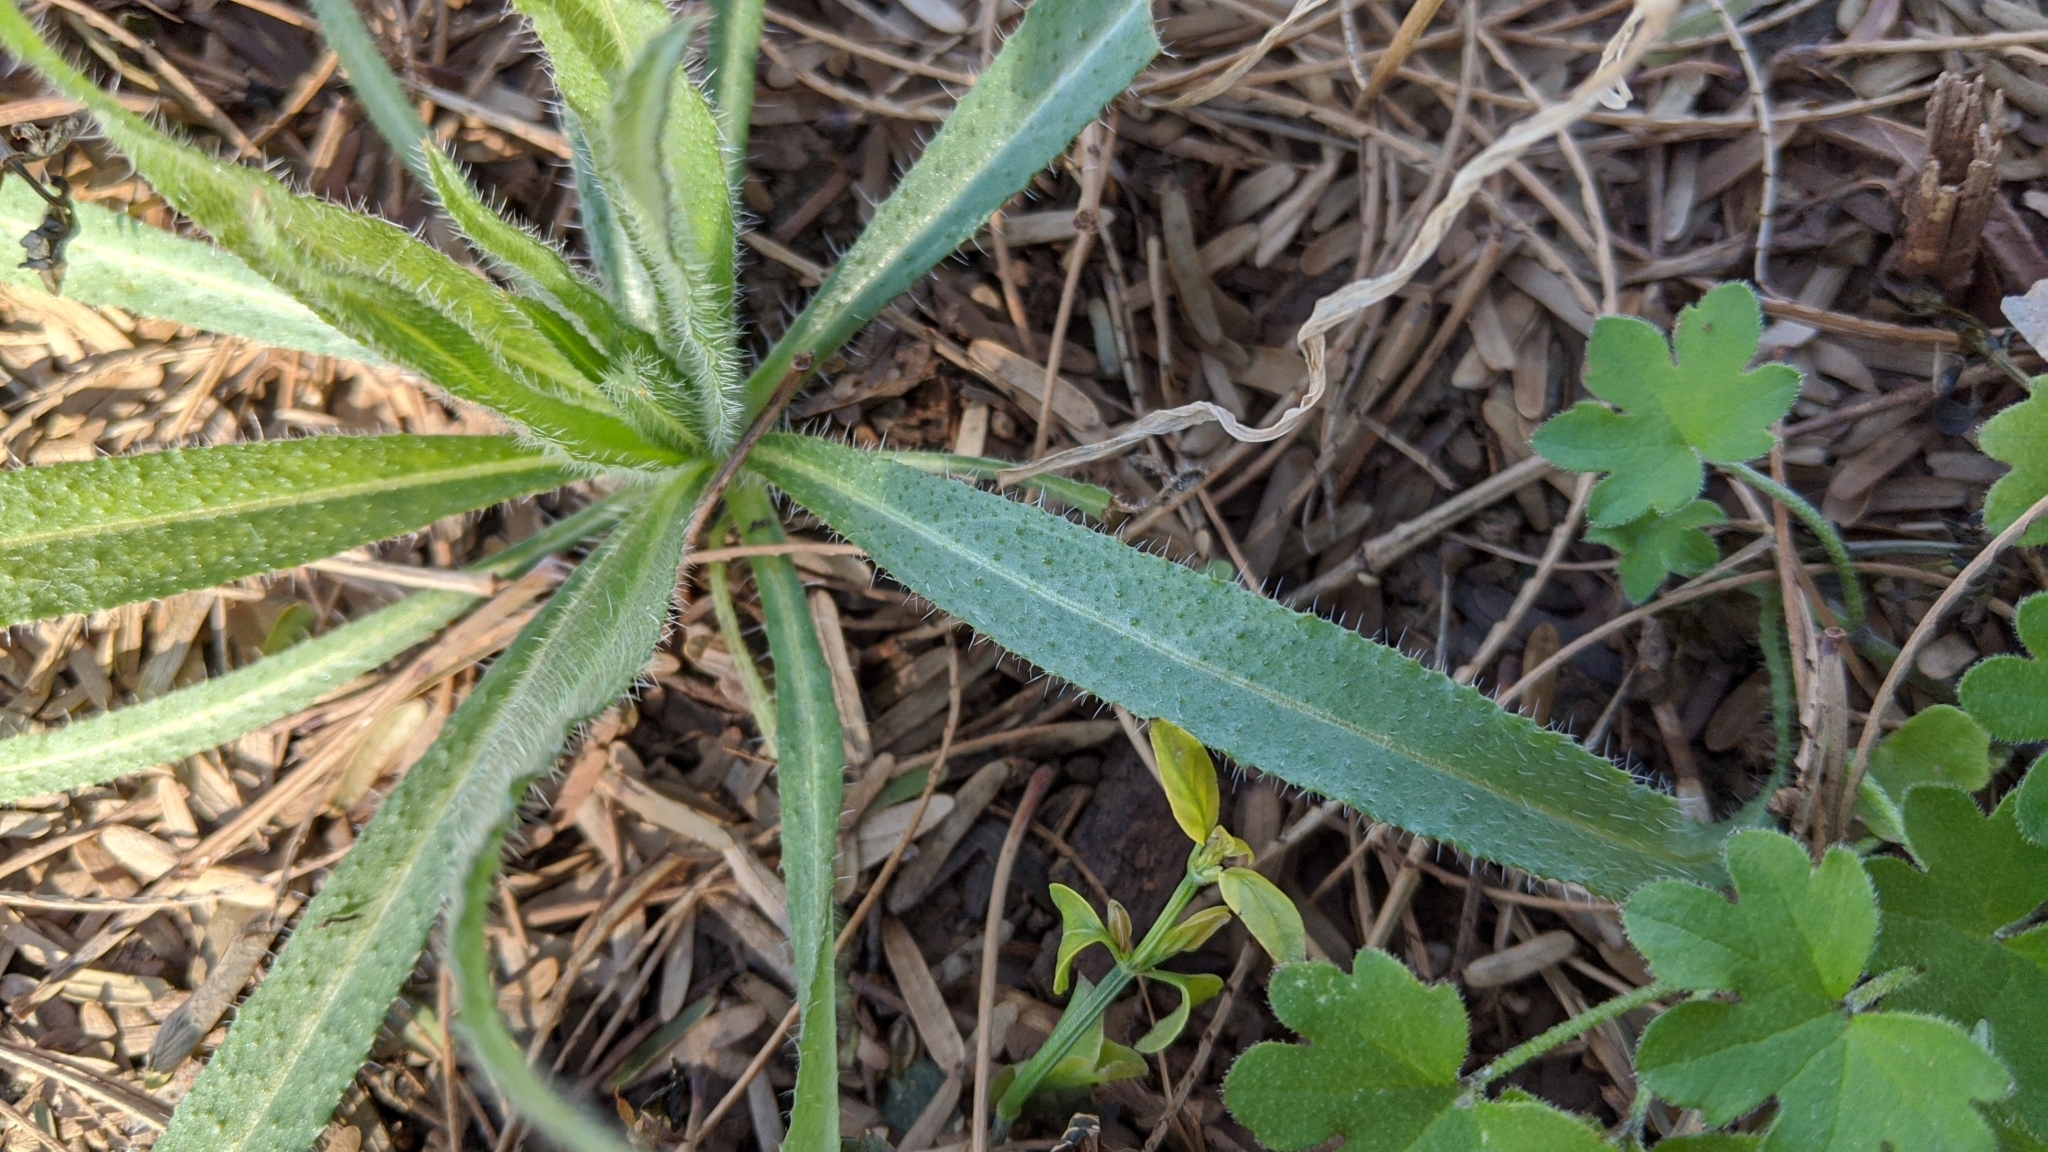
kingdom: Plantae
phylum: Tracheophyta
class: Magnoliopsida
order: Boraginales
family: Boraginaceae
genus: Amsinckia
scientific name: Amsinckia
